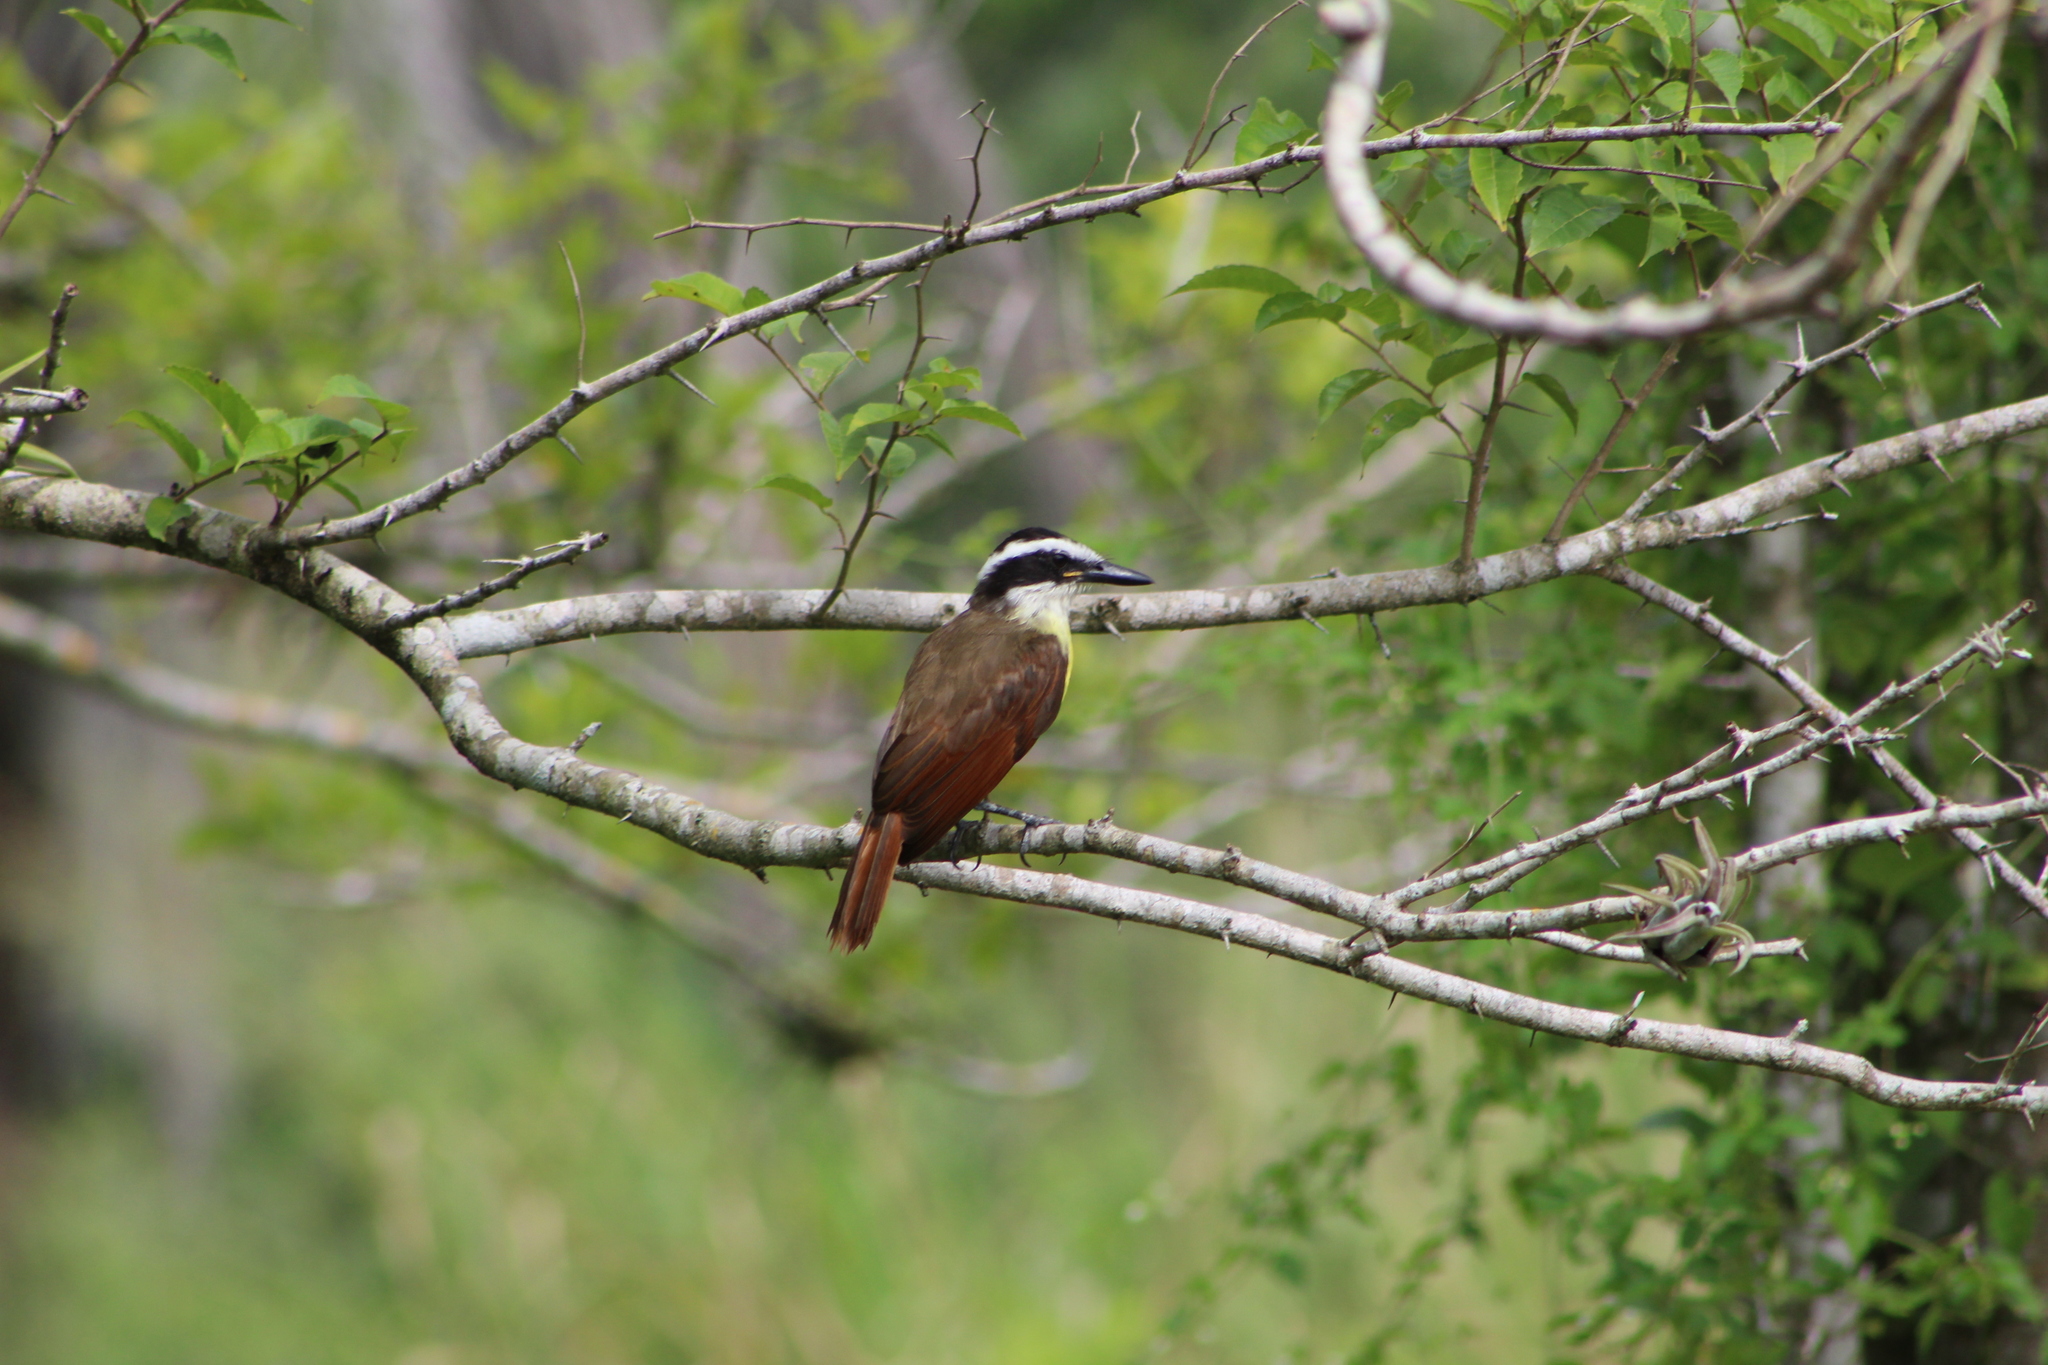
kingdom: Animalia
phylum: Chordata
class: Aves
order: Passeriformes
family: Tyrannidae
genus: Pitangus
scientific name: Pitangus sulphuratus
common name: Great kiskadee
